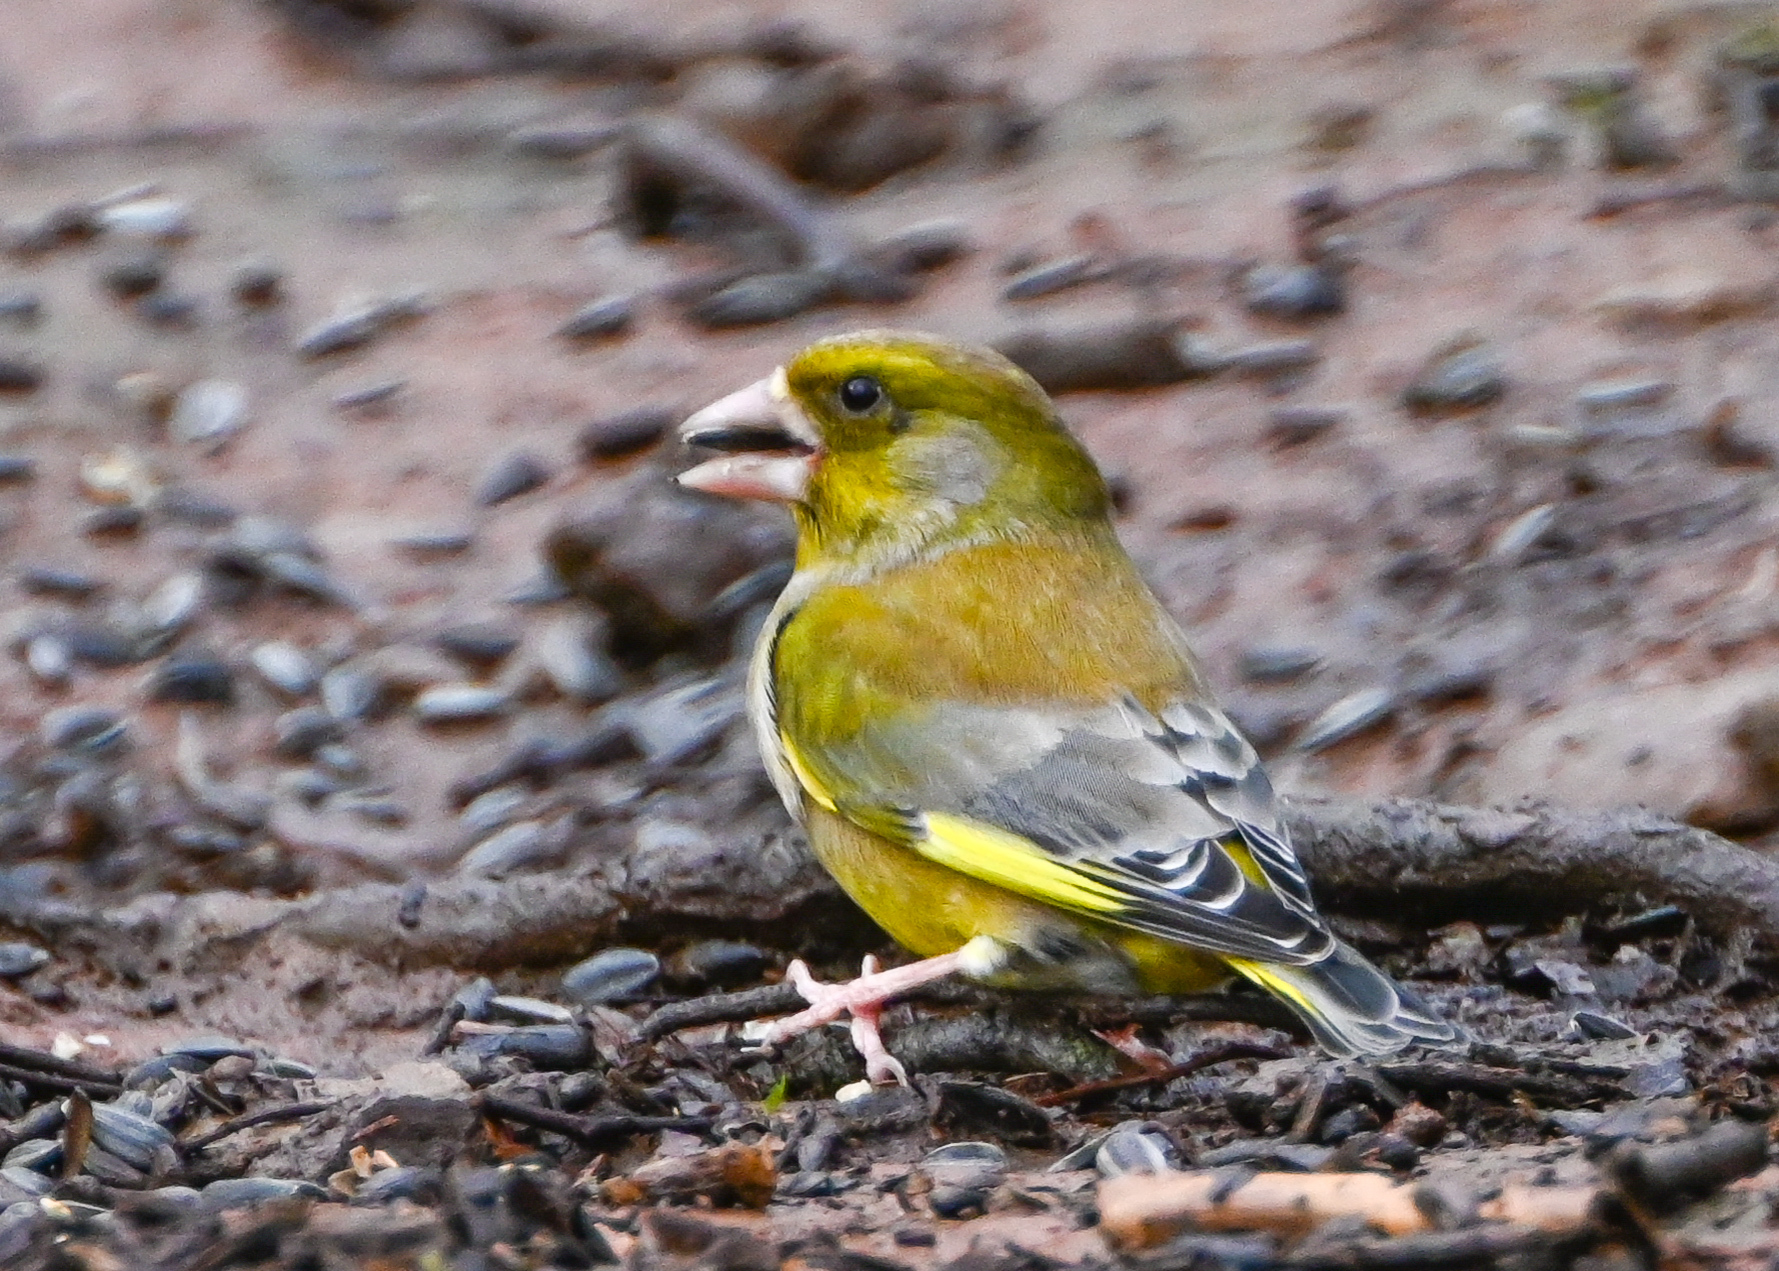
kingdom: Plantae
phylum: Tracheophyta
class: Liliopsida
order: Poales
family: Poaceae
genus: Chloris
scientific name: Chloris chloris
